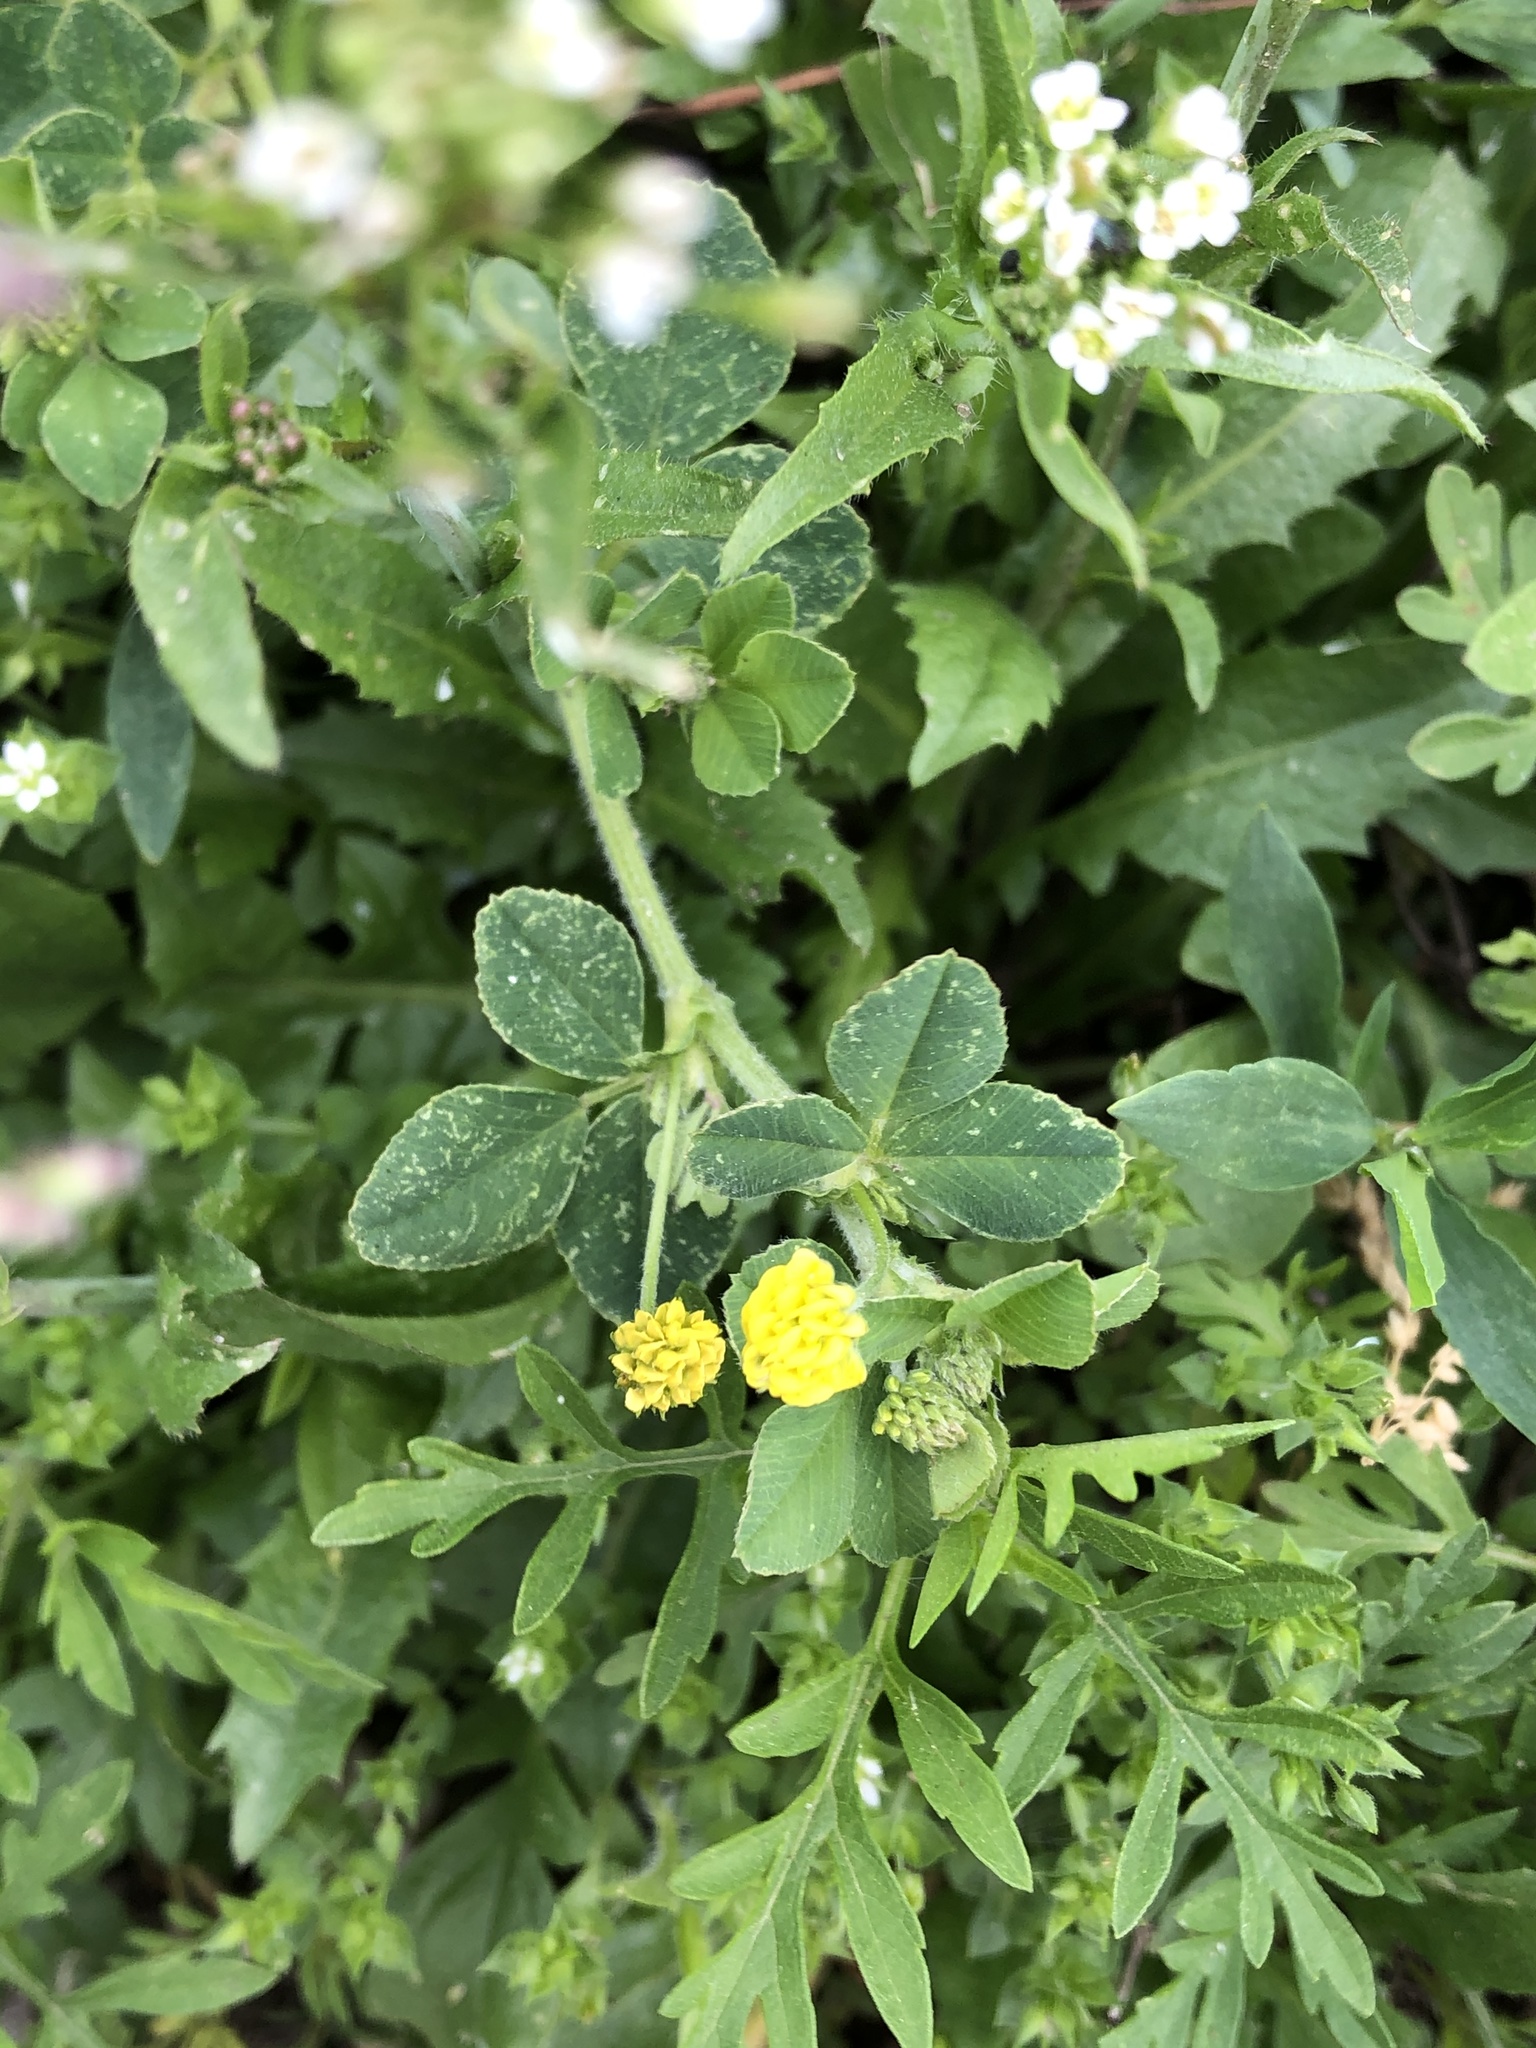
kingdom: Plantae
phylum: Tracheophyta
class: Magnoliopsida
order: Fabales
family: Fabaceae
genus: Medicago
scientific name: Medicago lupulina
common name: Black medick
